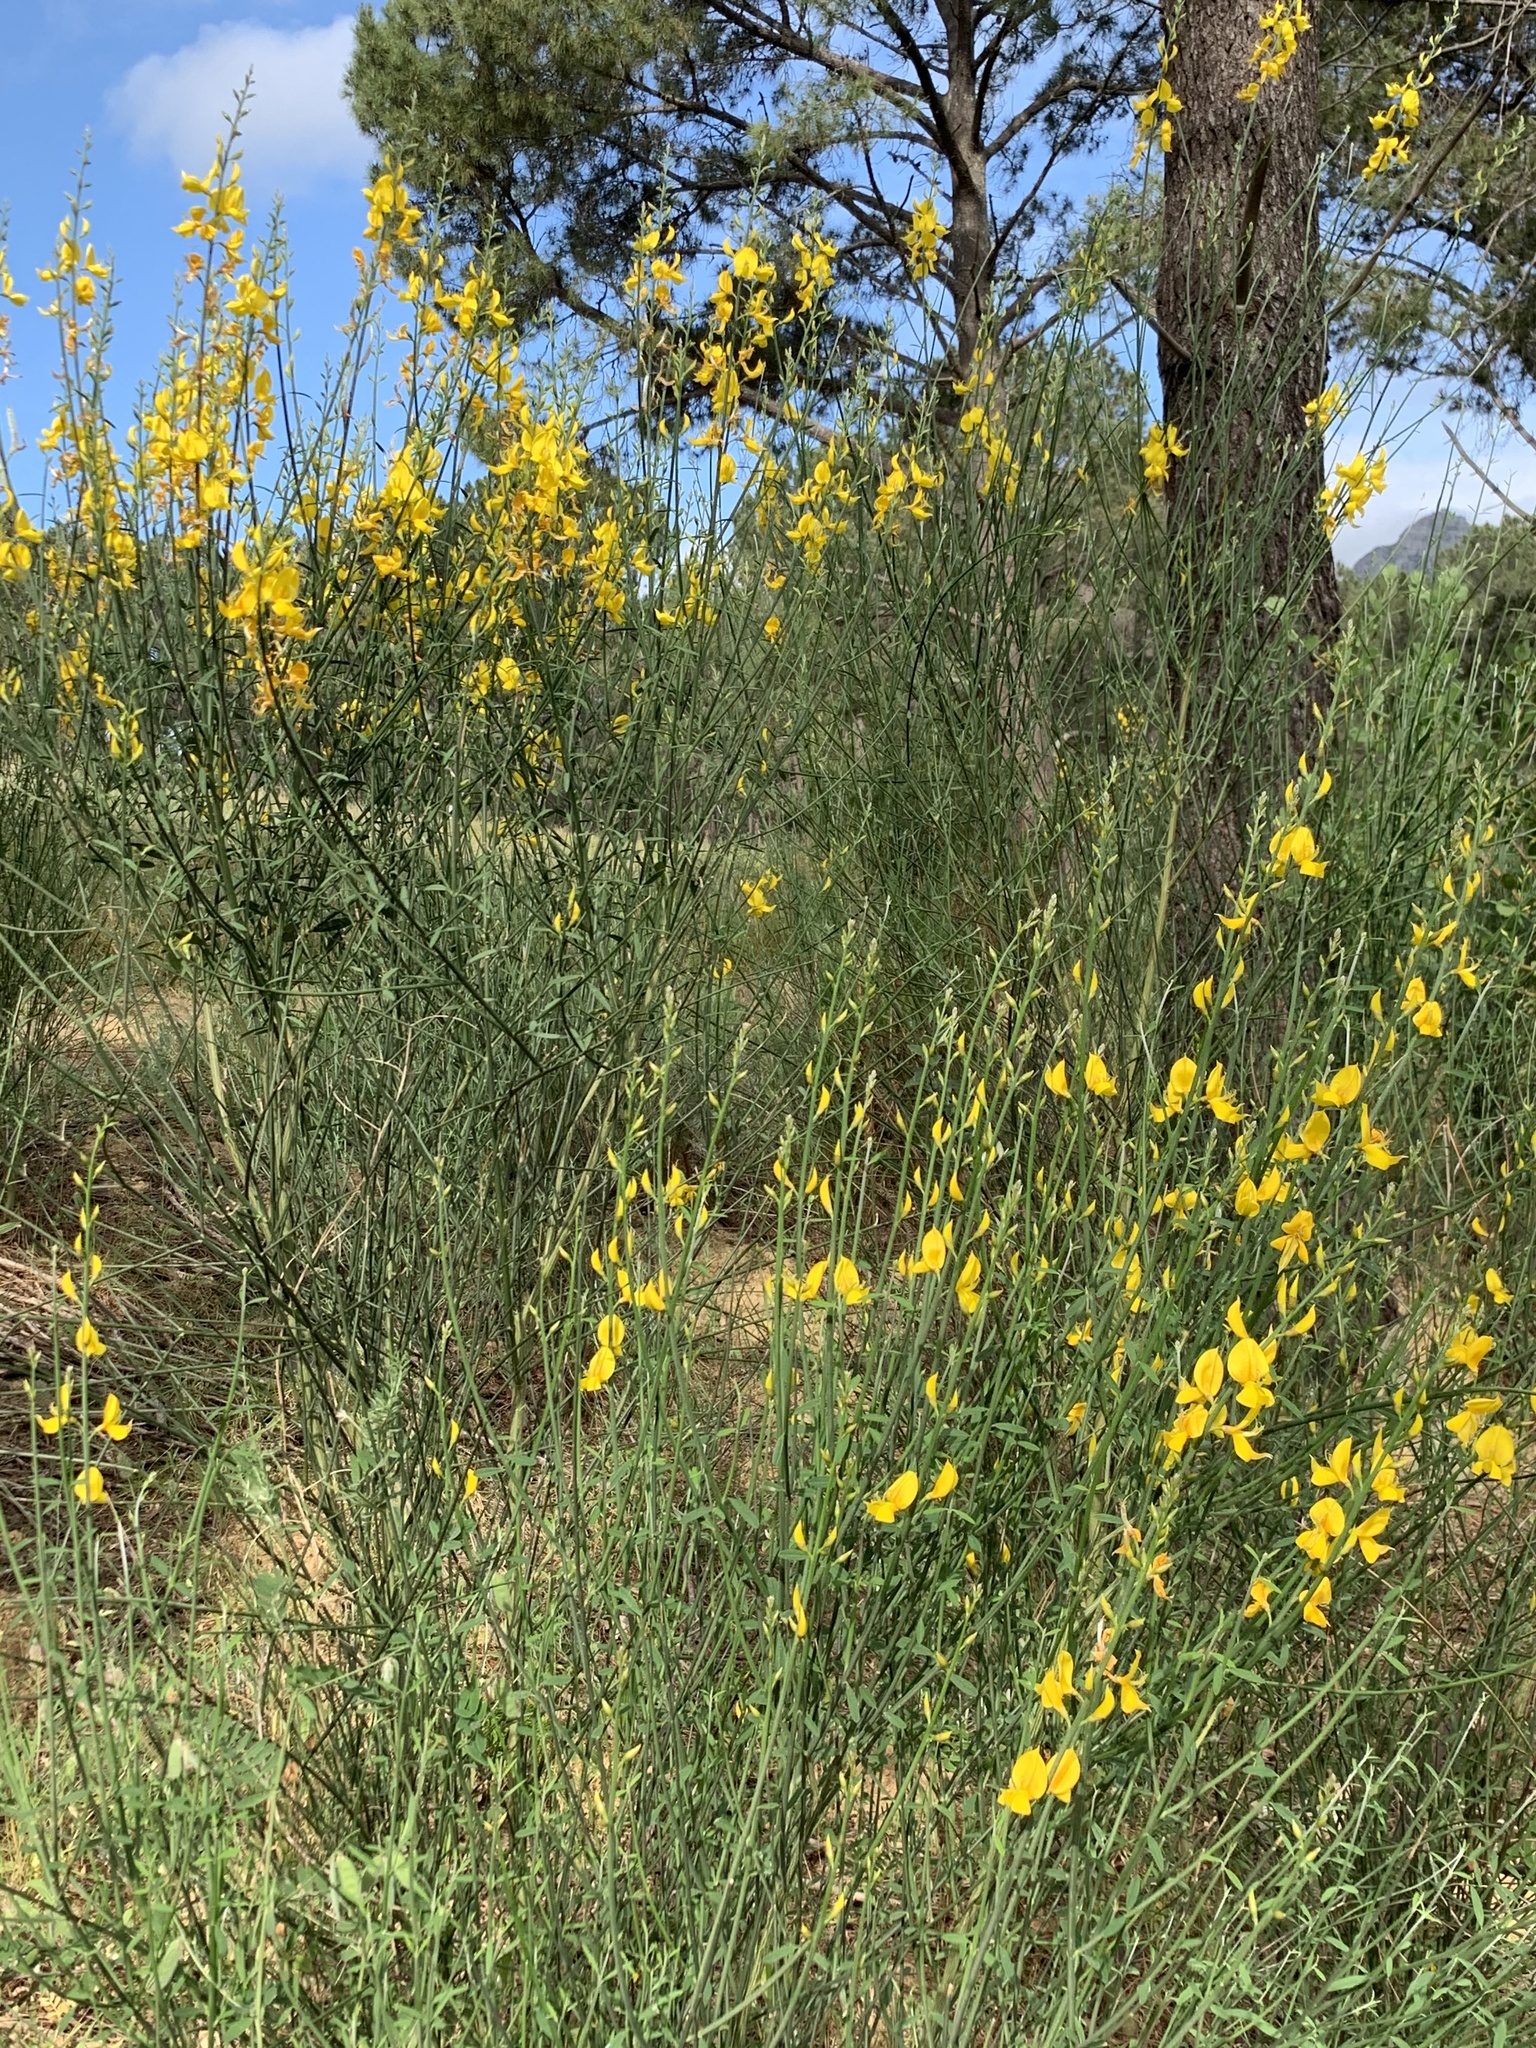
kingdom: Plantae
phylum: Tracheophyta
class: Magnoliopsida
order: Fabales
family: Fabaceae
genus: Spartium
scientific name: Spartium junceum
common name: Spanish broom
